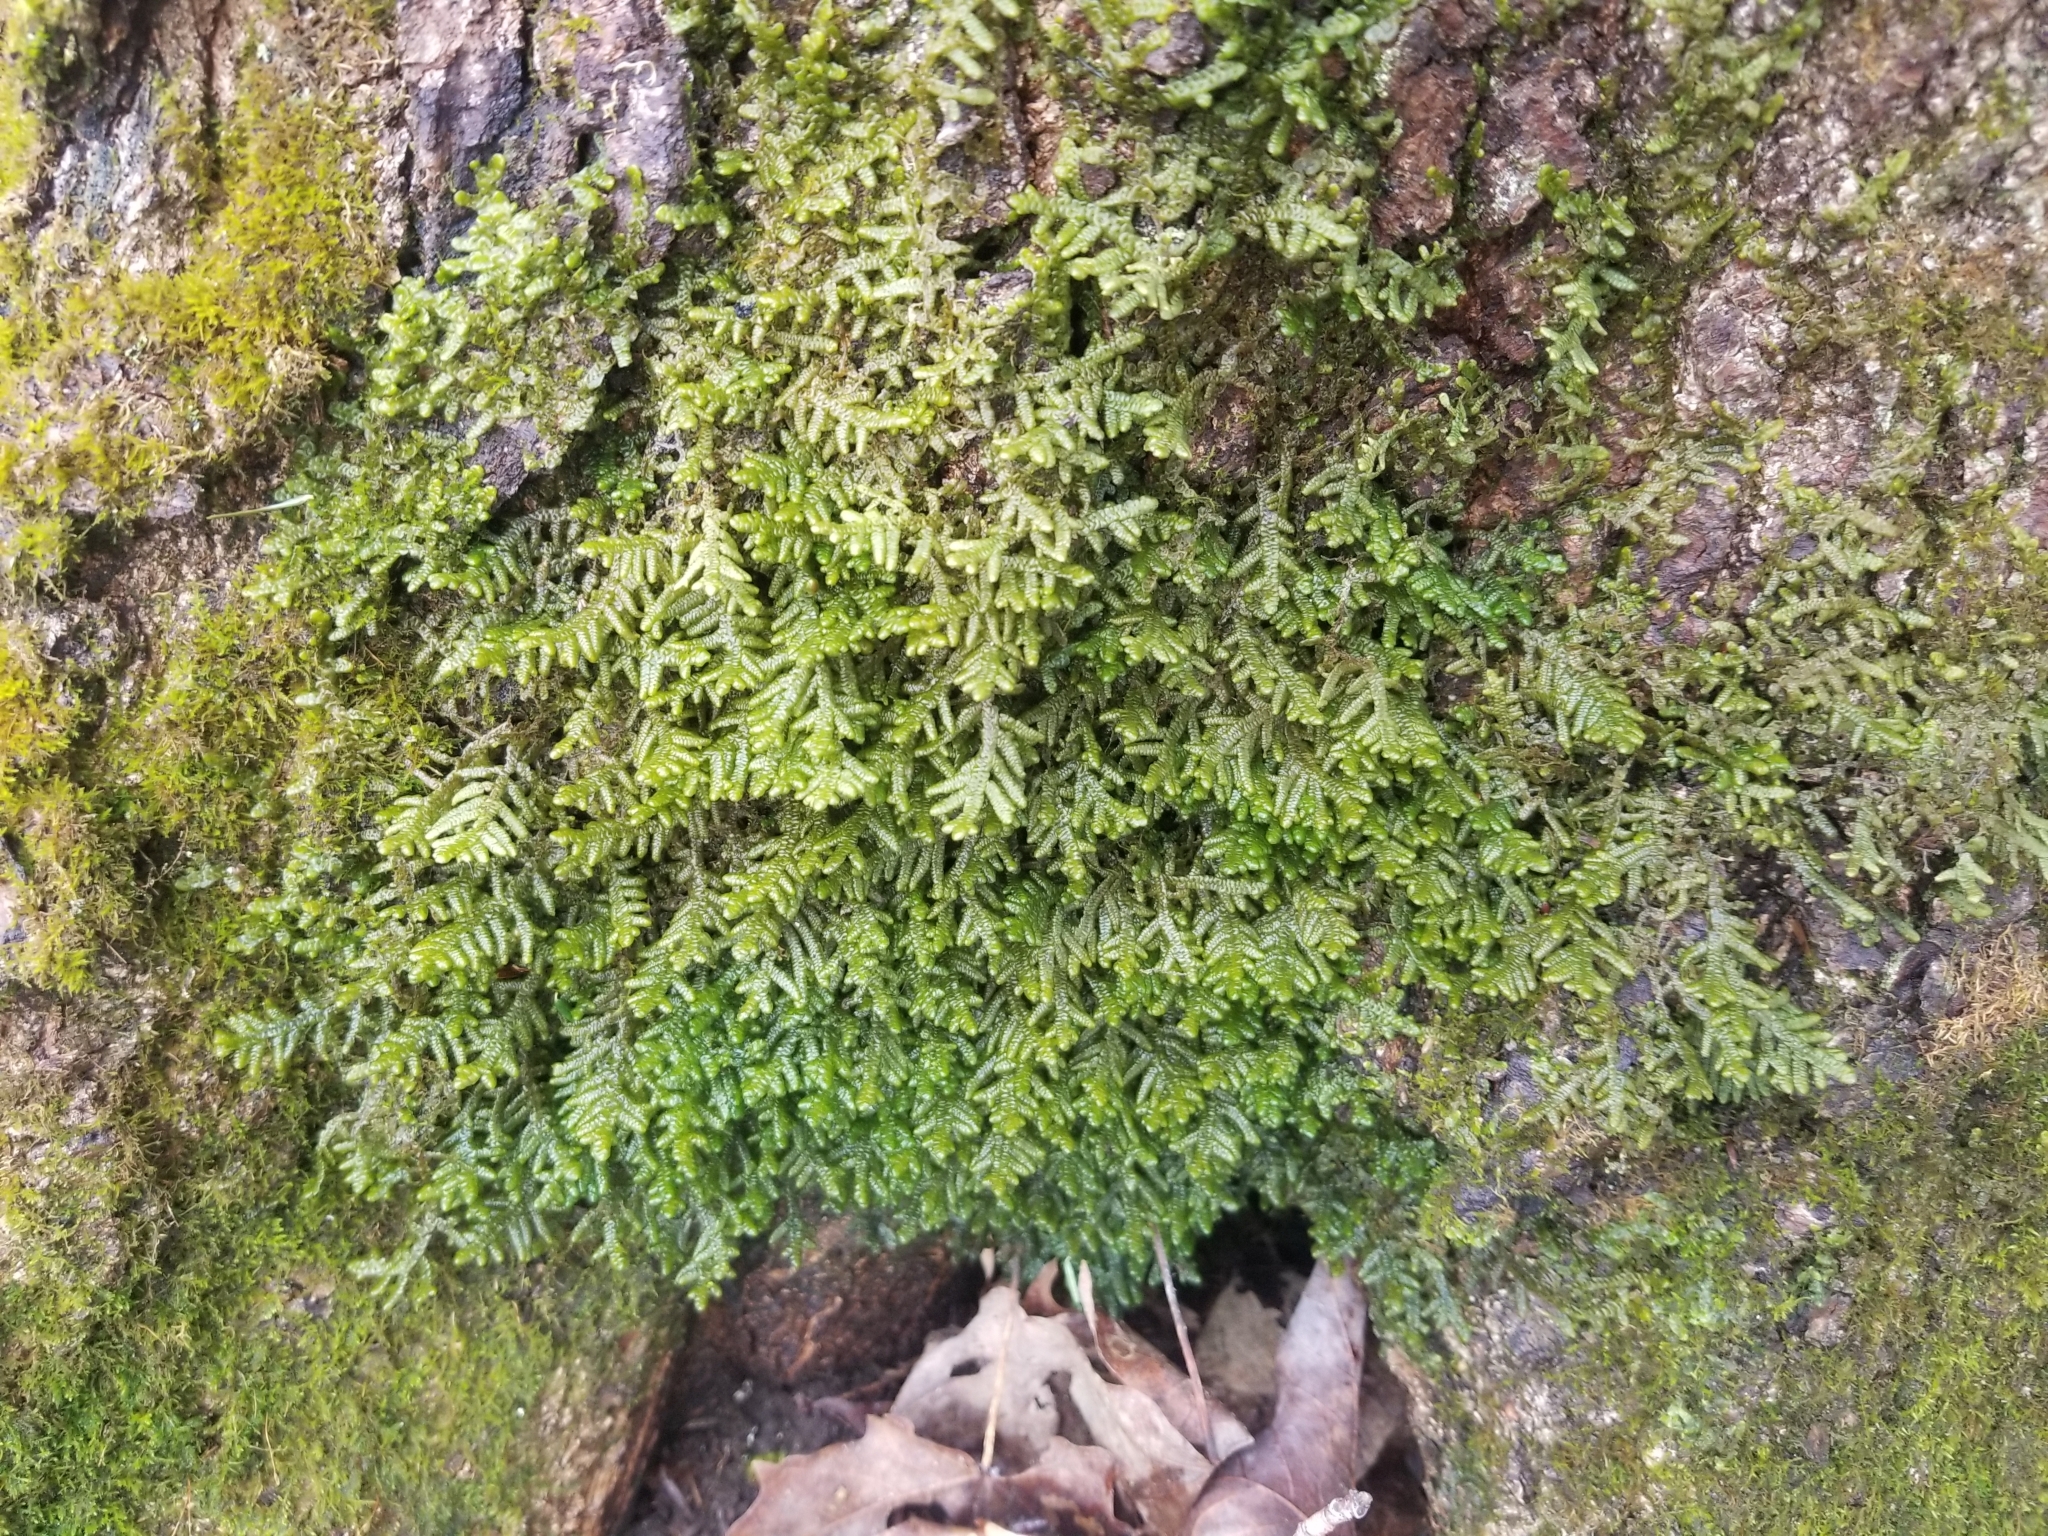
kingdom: Plantae
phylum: Marchantiophyta
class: Jungermanniopsida
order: Porellales
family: Porellaceae
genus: Porella
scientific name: Porella platyphylla
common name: Wall scalewort
